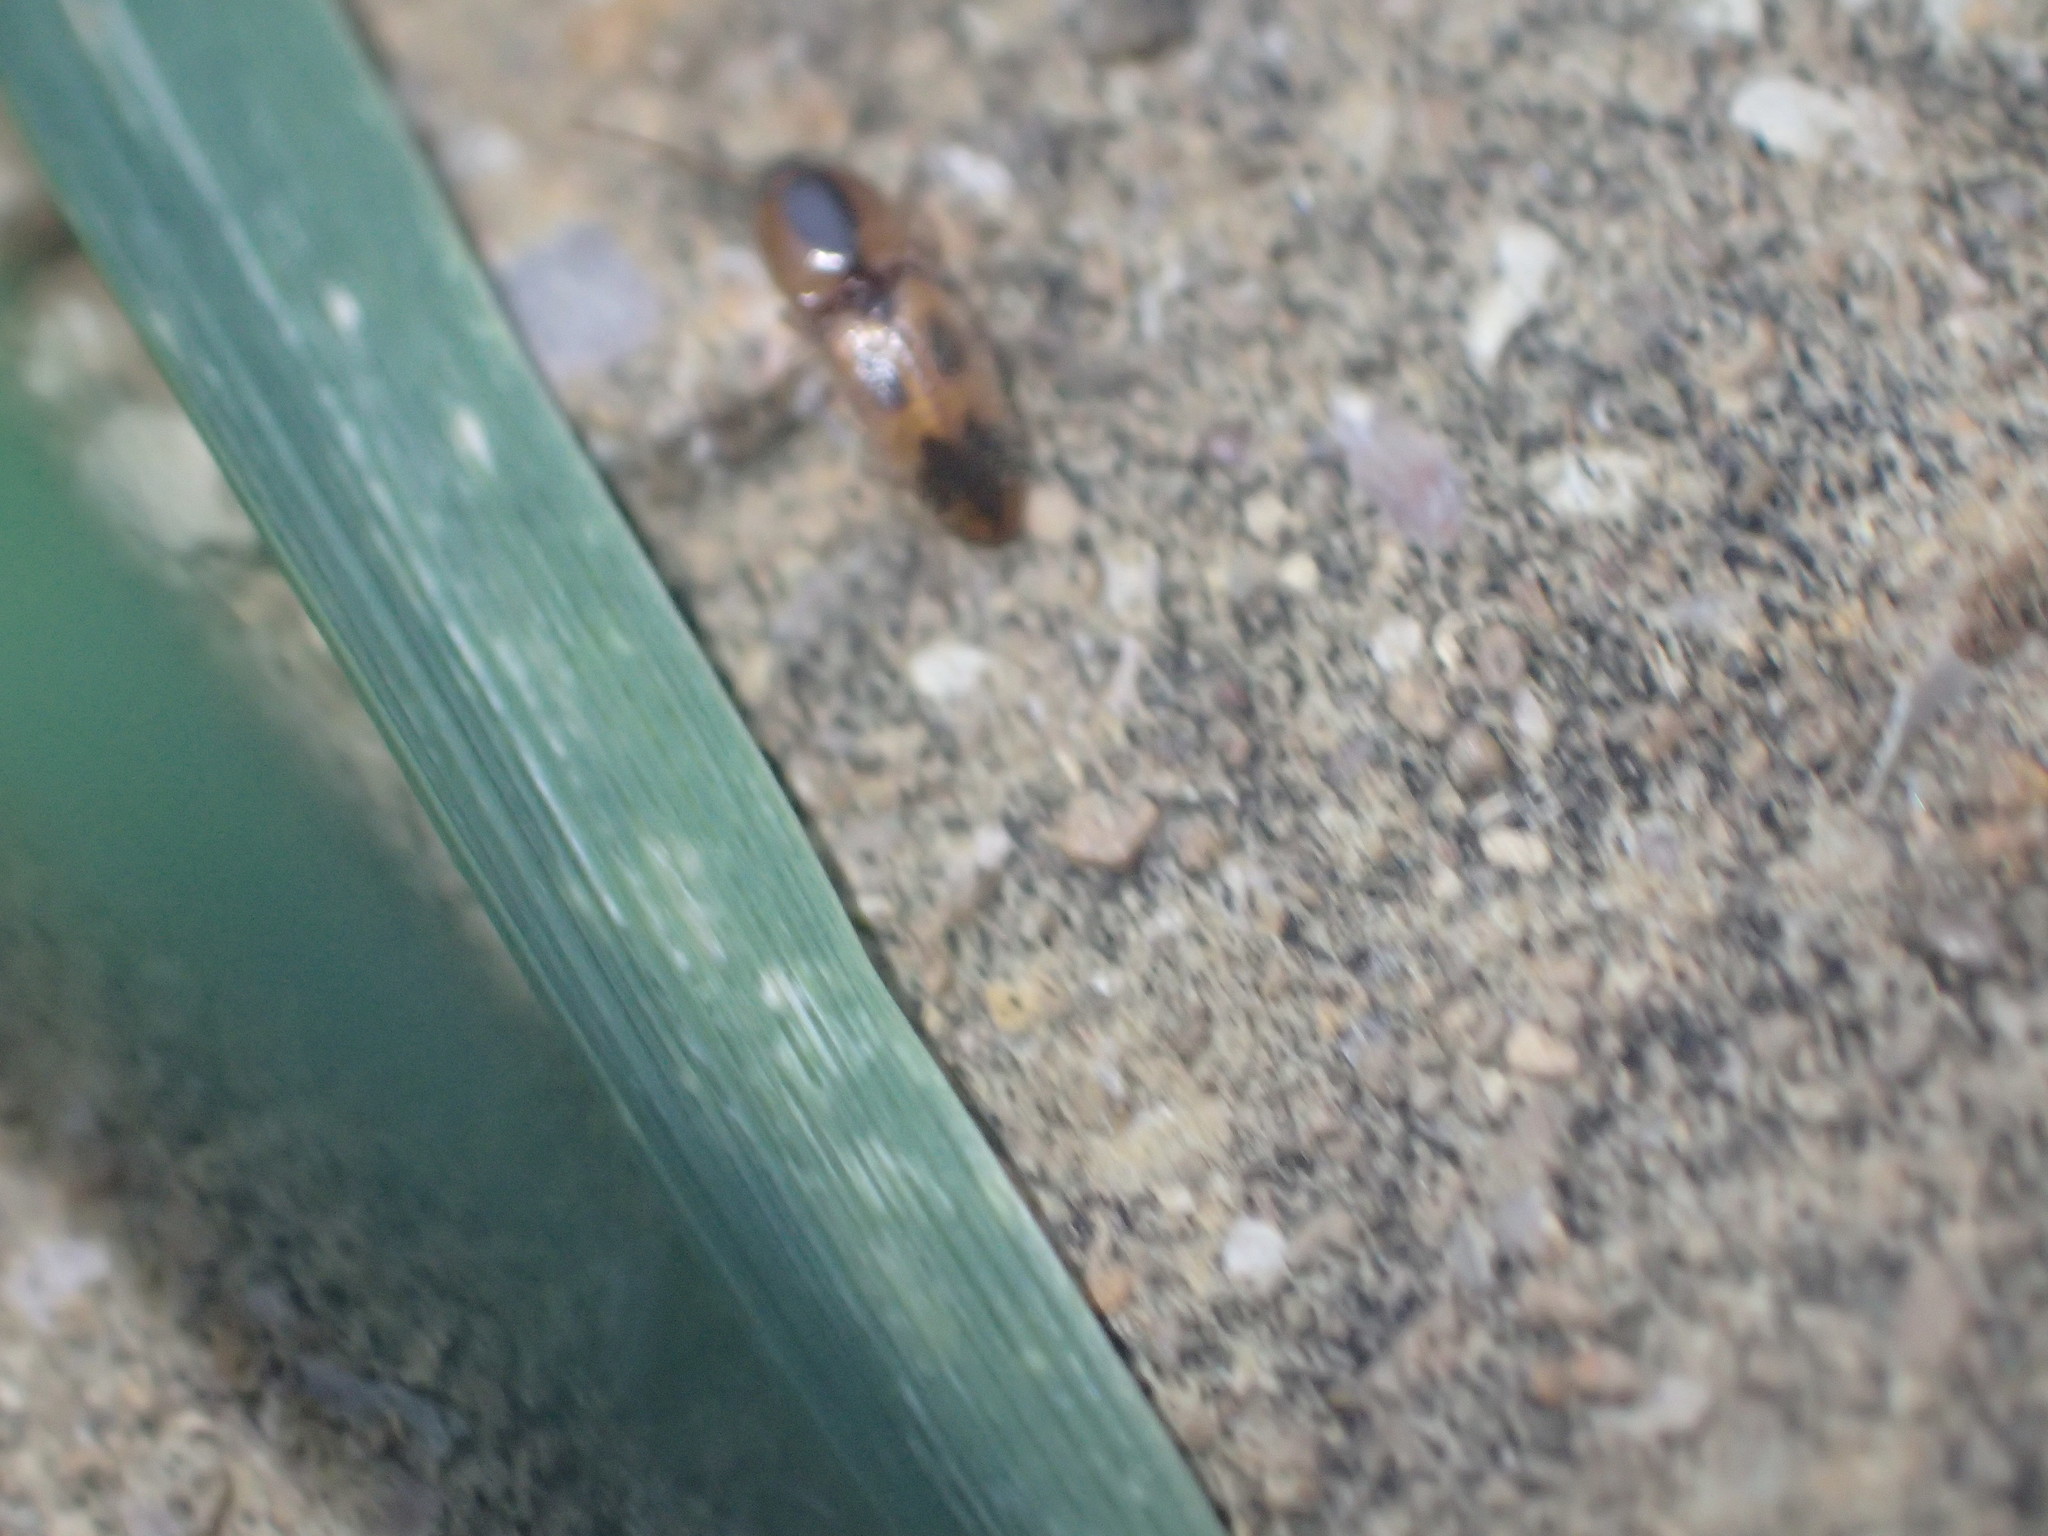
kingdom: Animalia
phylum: Arthropoda
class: Insecta
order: Coleoptera
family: Elateridae
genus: Aeolus
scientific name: Aeolus mellillus
